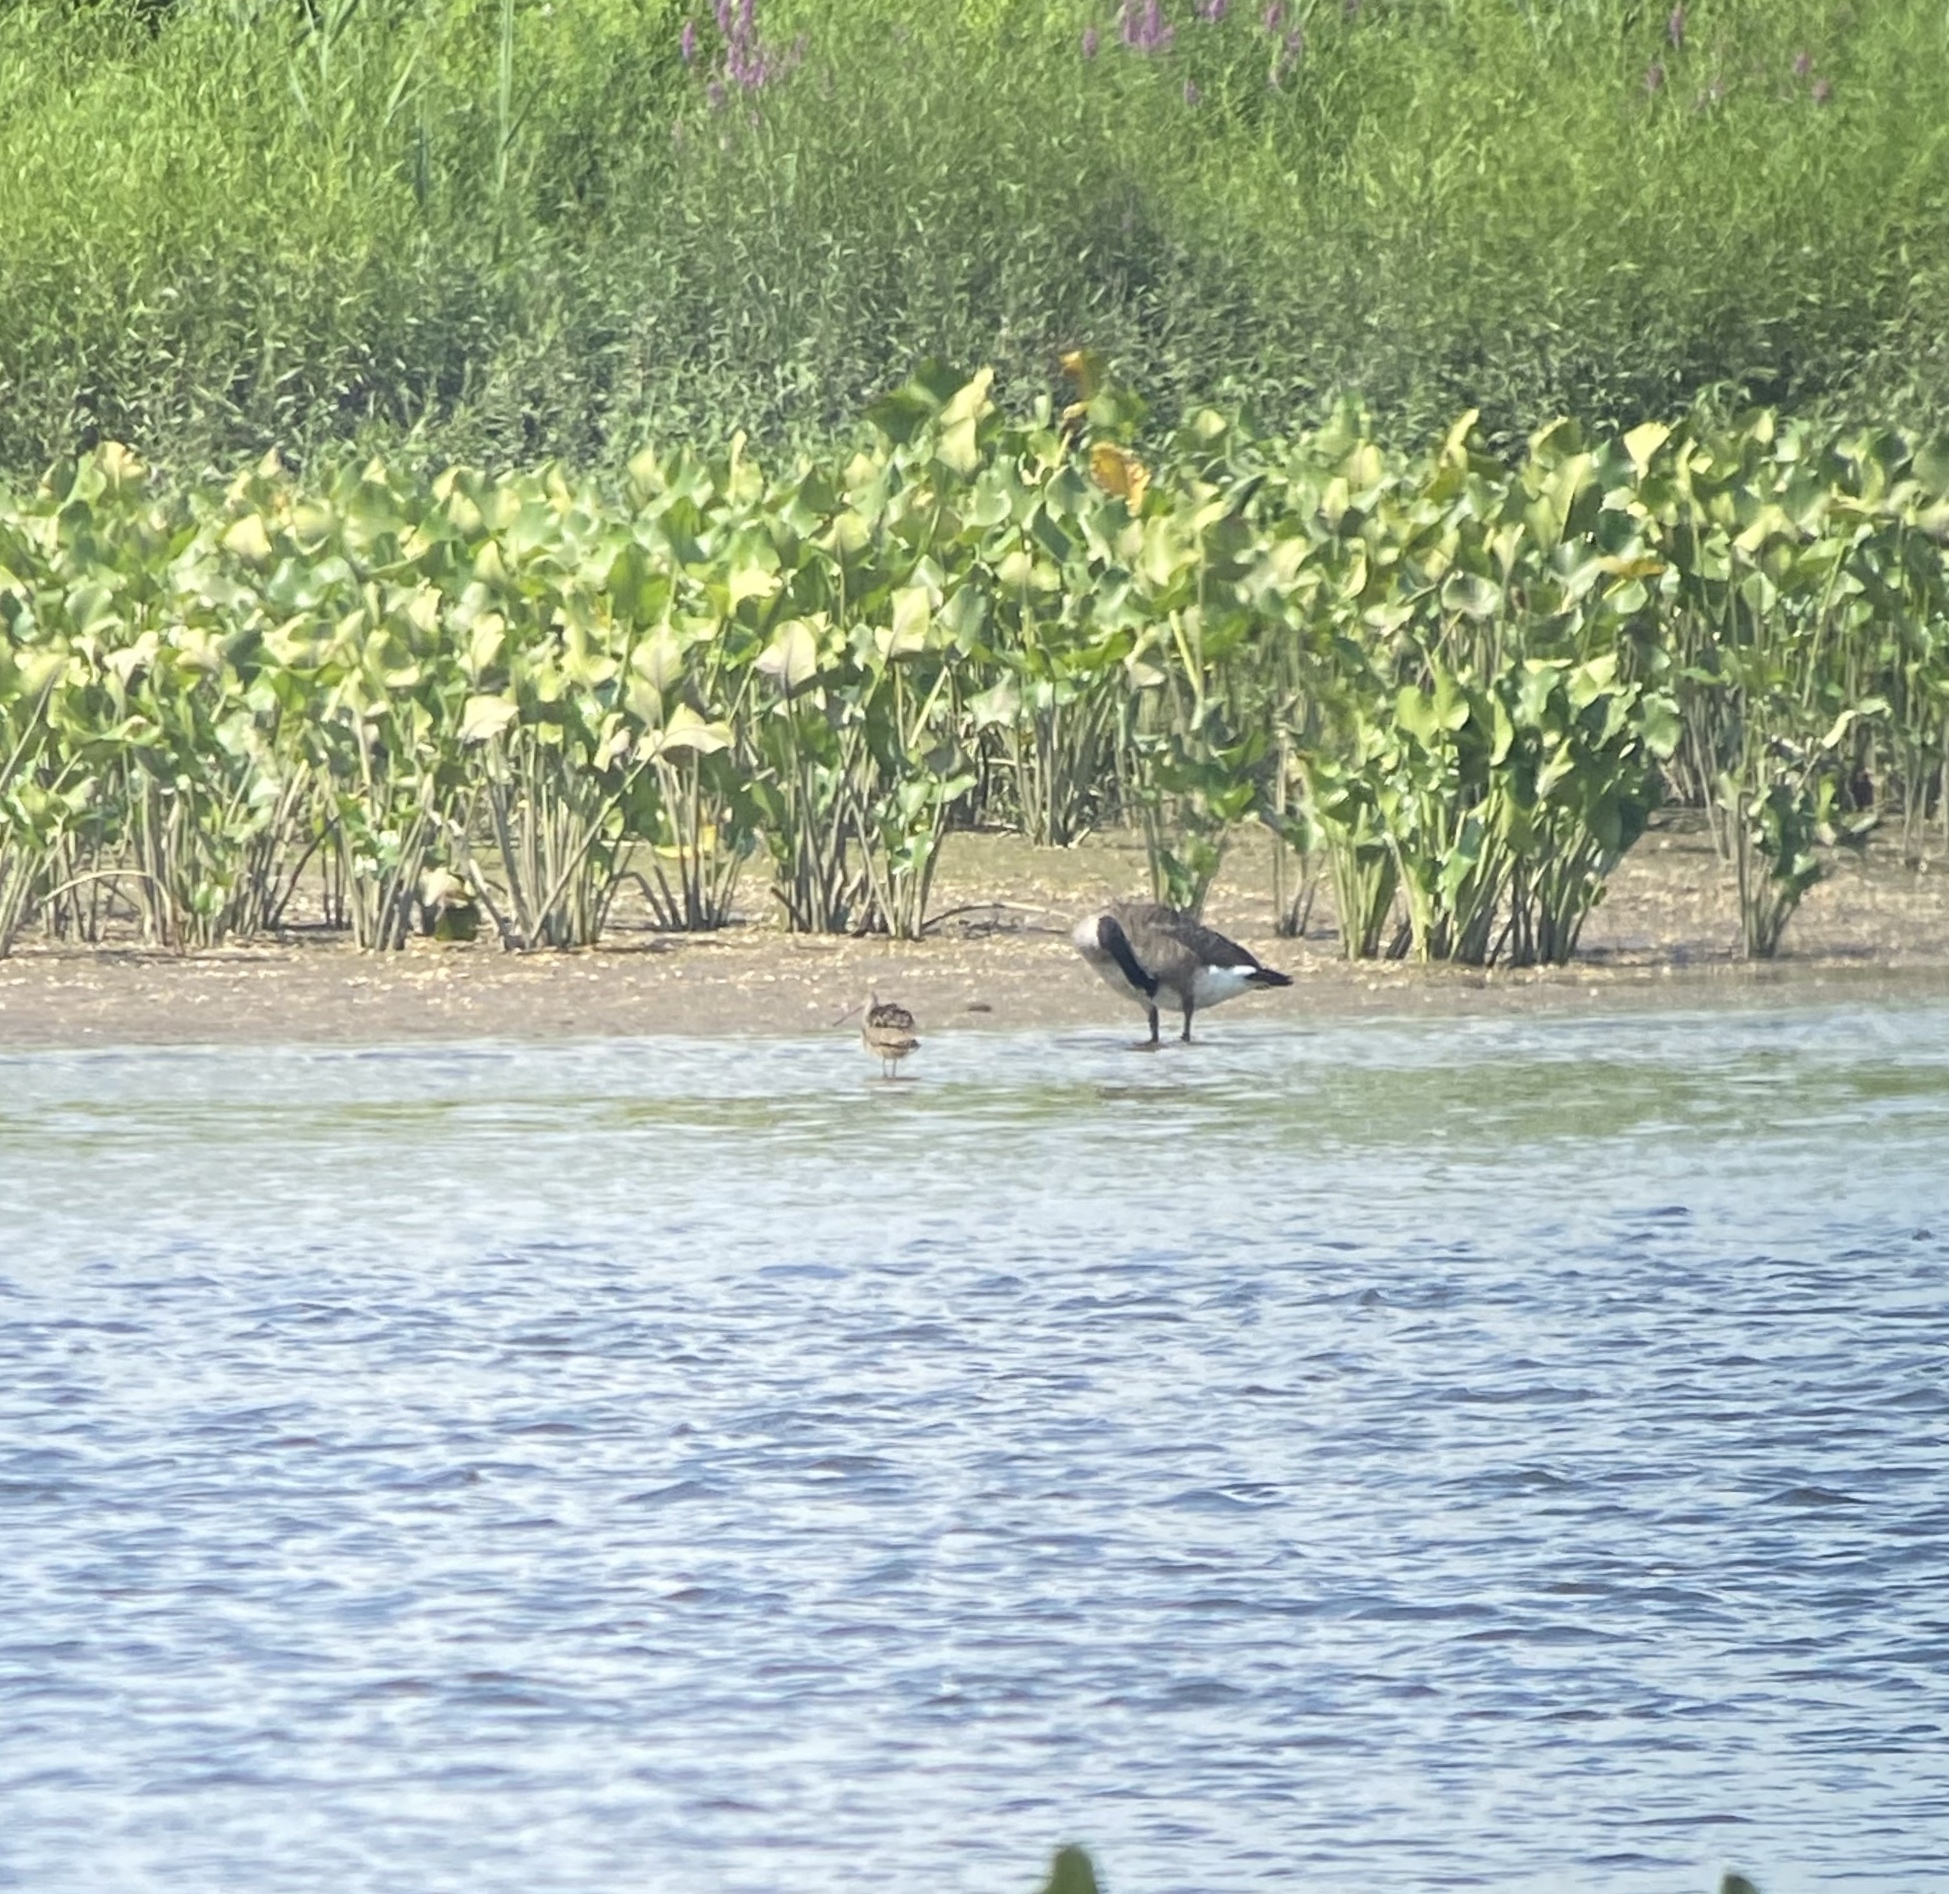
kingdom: Animalia
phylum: Chordata
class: Aves
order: Charadriiformes
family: Scolopacidae
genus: Limosa
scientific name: Limosa fedoa
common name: Marbled godwit
